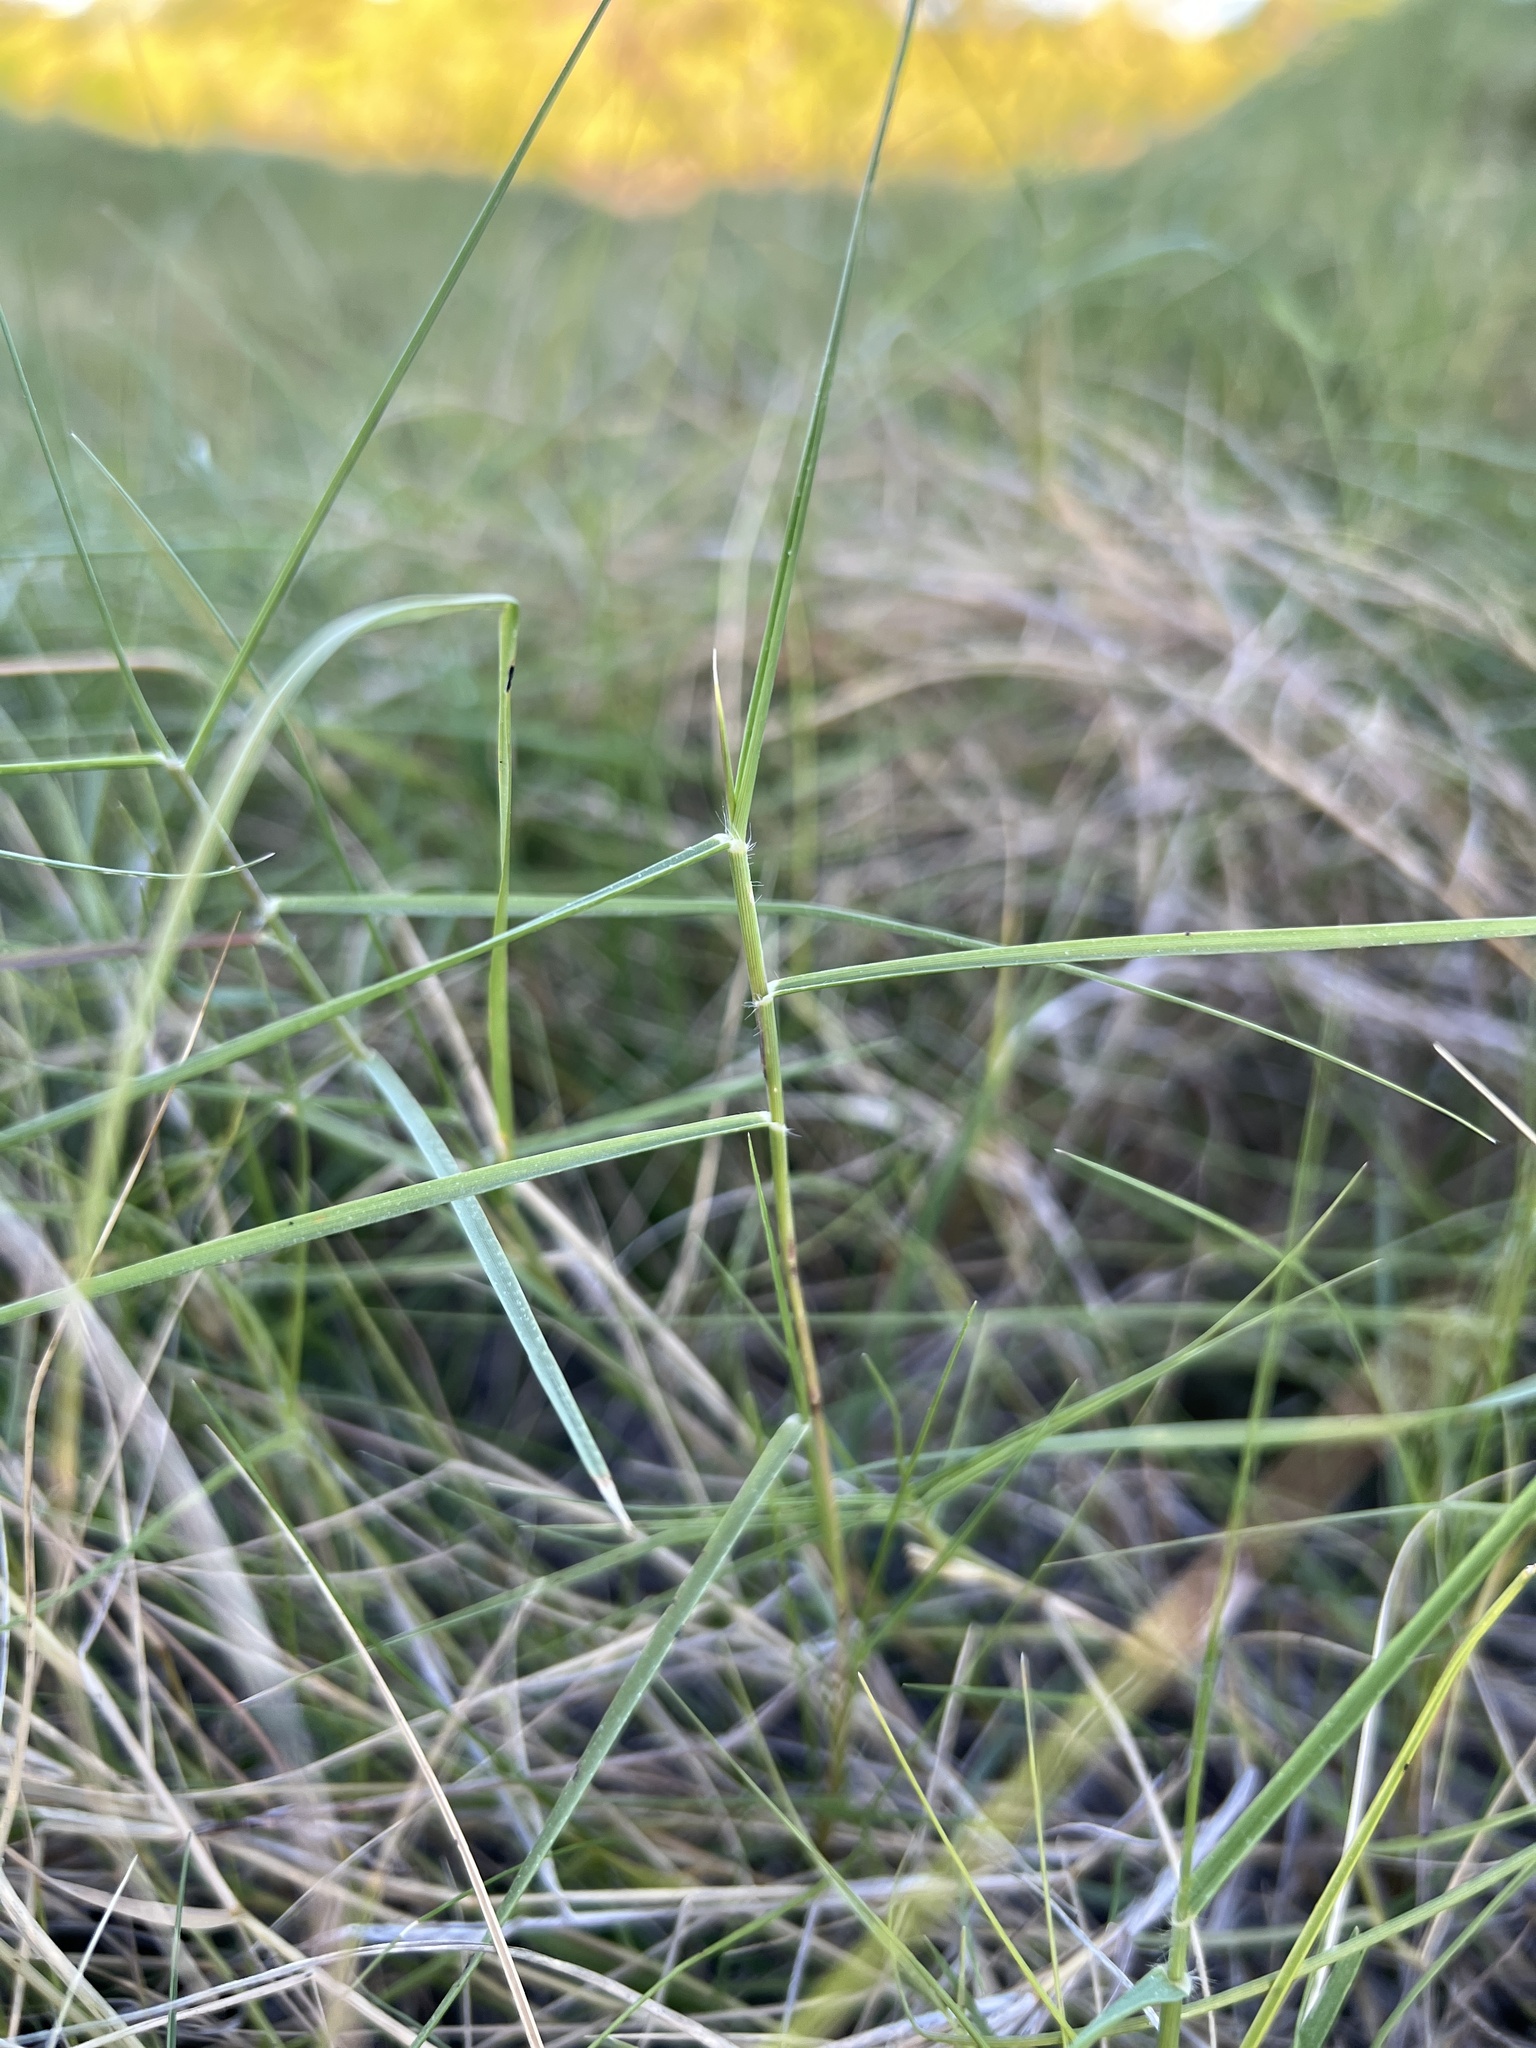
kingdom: Plantae
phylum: Tracheophyta
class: Liliopsida
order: Poales
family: Poaceae
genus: Sporobolus
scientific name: Sporobolus virginicus
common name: Beach dropseed
